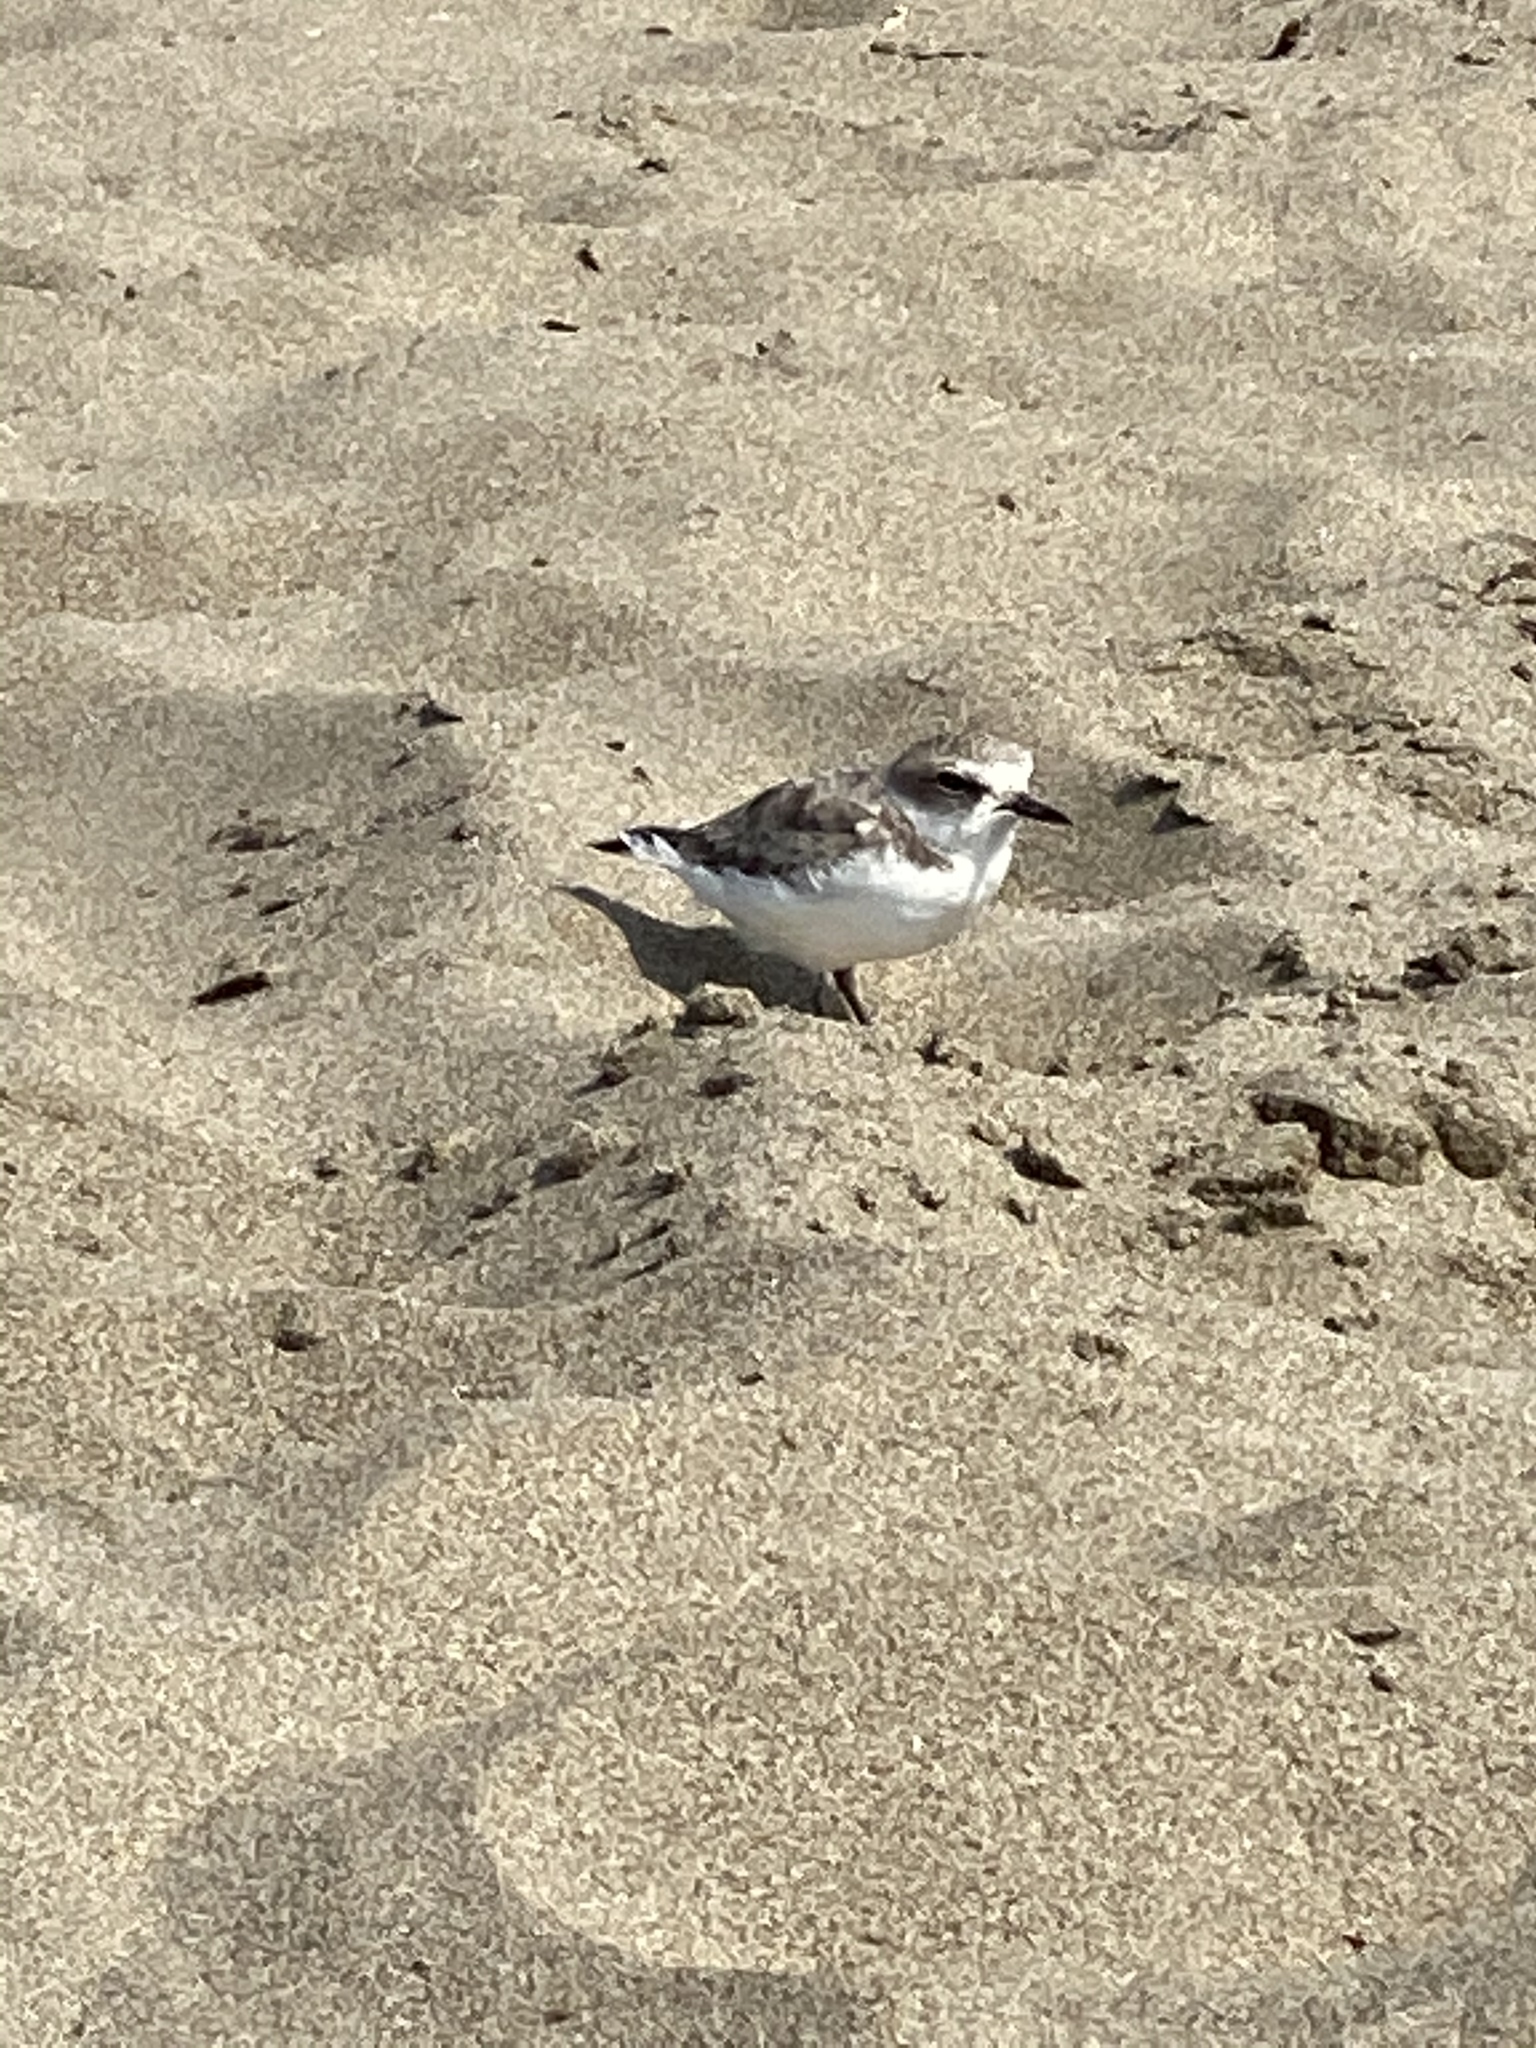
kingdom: Animalia
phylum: Chordata
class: Aves
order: Charadriiformes
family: Charadriidae
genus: Anarhynchus
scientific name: Anarhynchus
